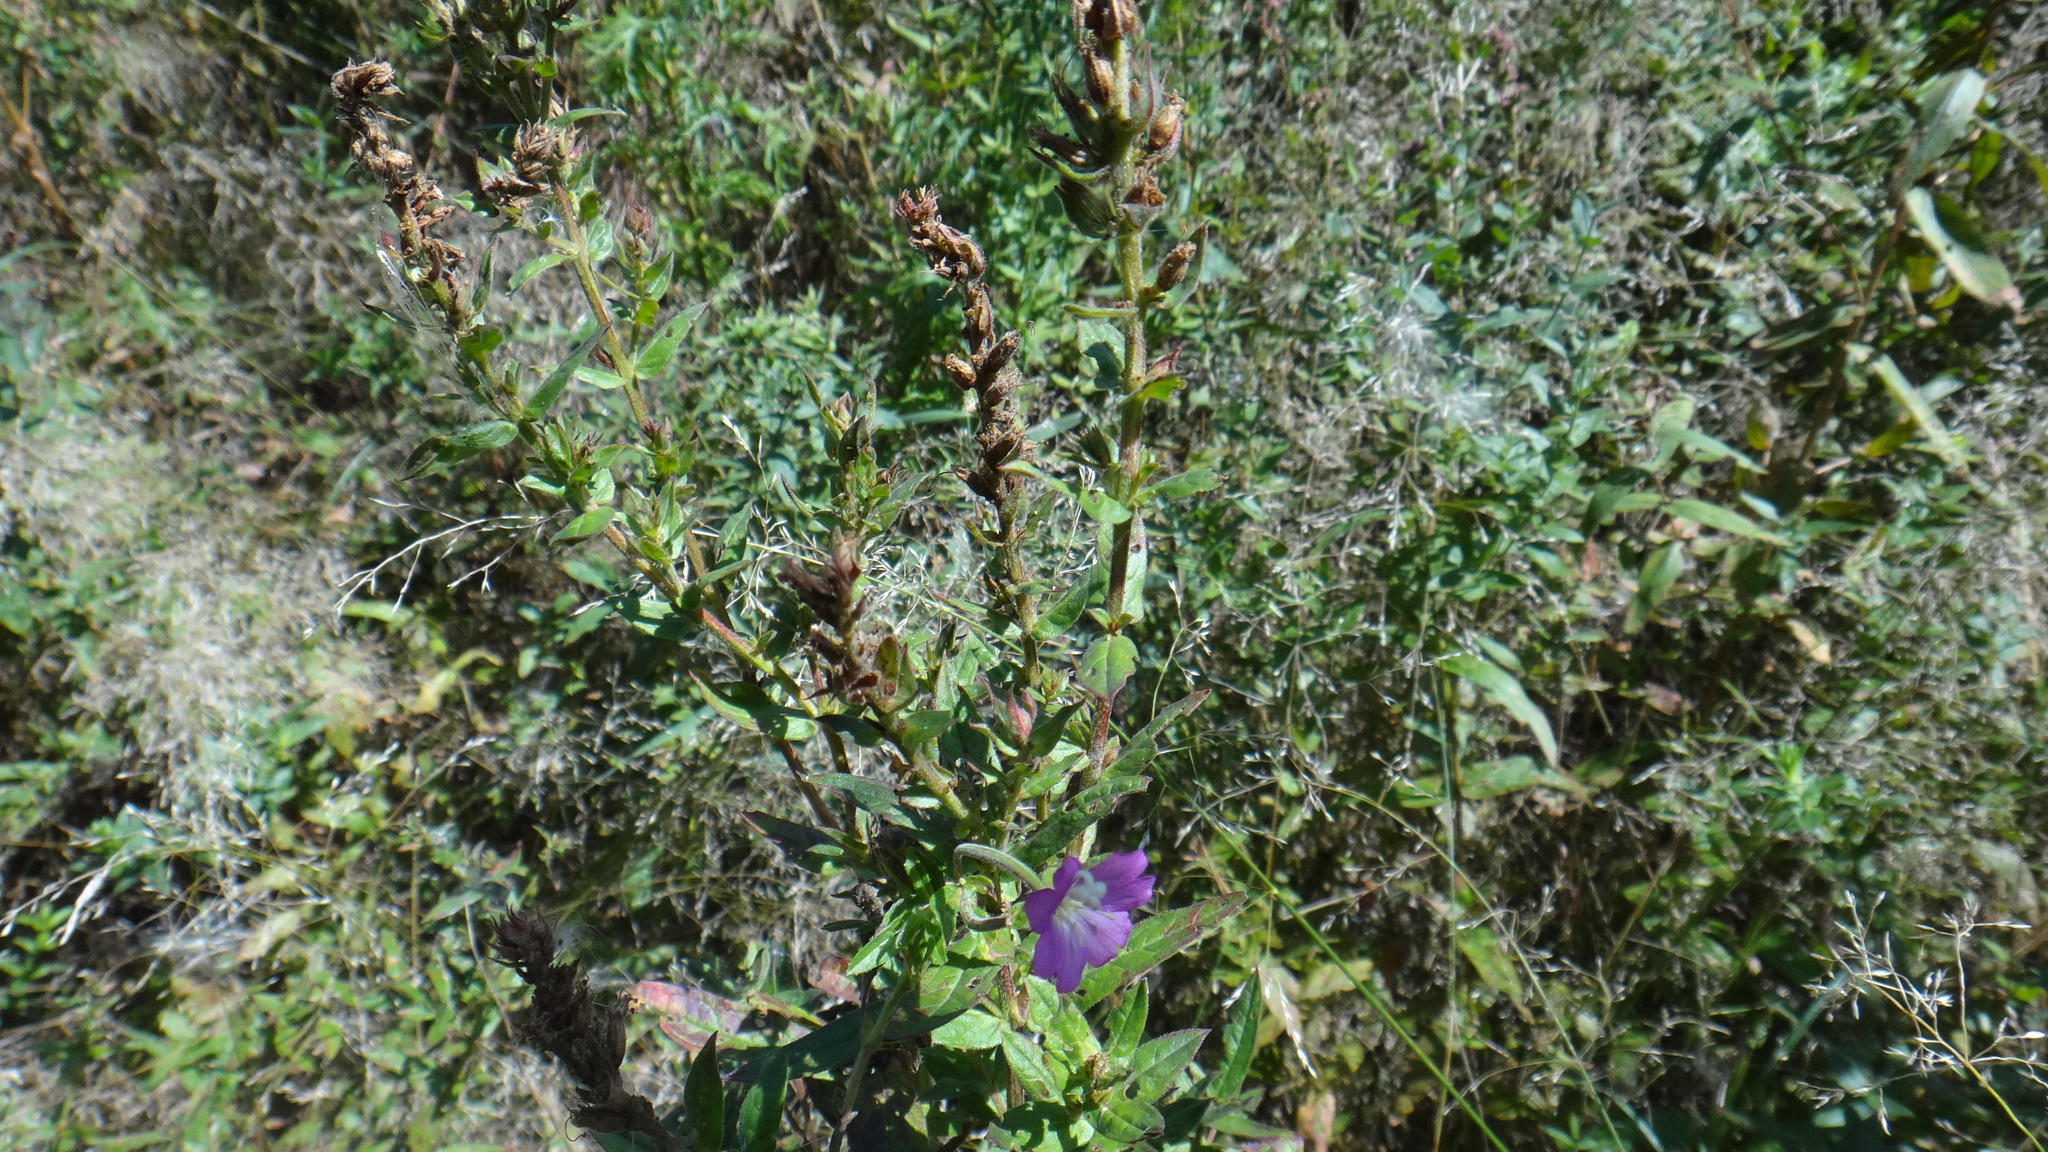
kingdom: Plantae
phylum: Tracheophyta
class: Magnoliopsida
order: Myrtales
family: Onagraceae
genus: Epilobium
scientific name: Epilobium hirsutum
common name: Great willowherb
